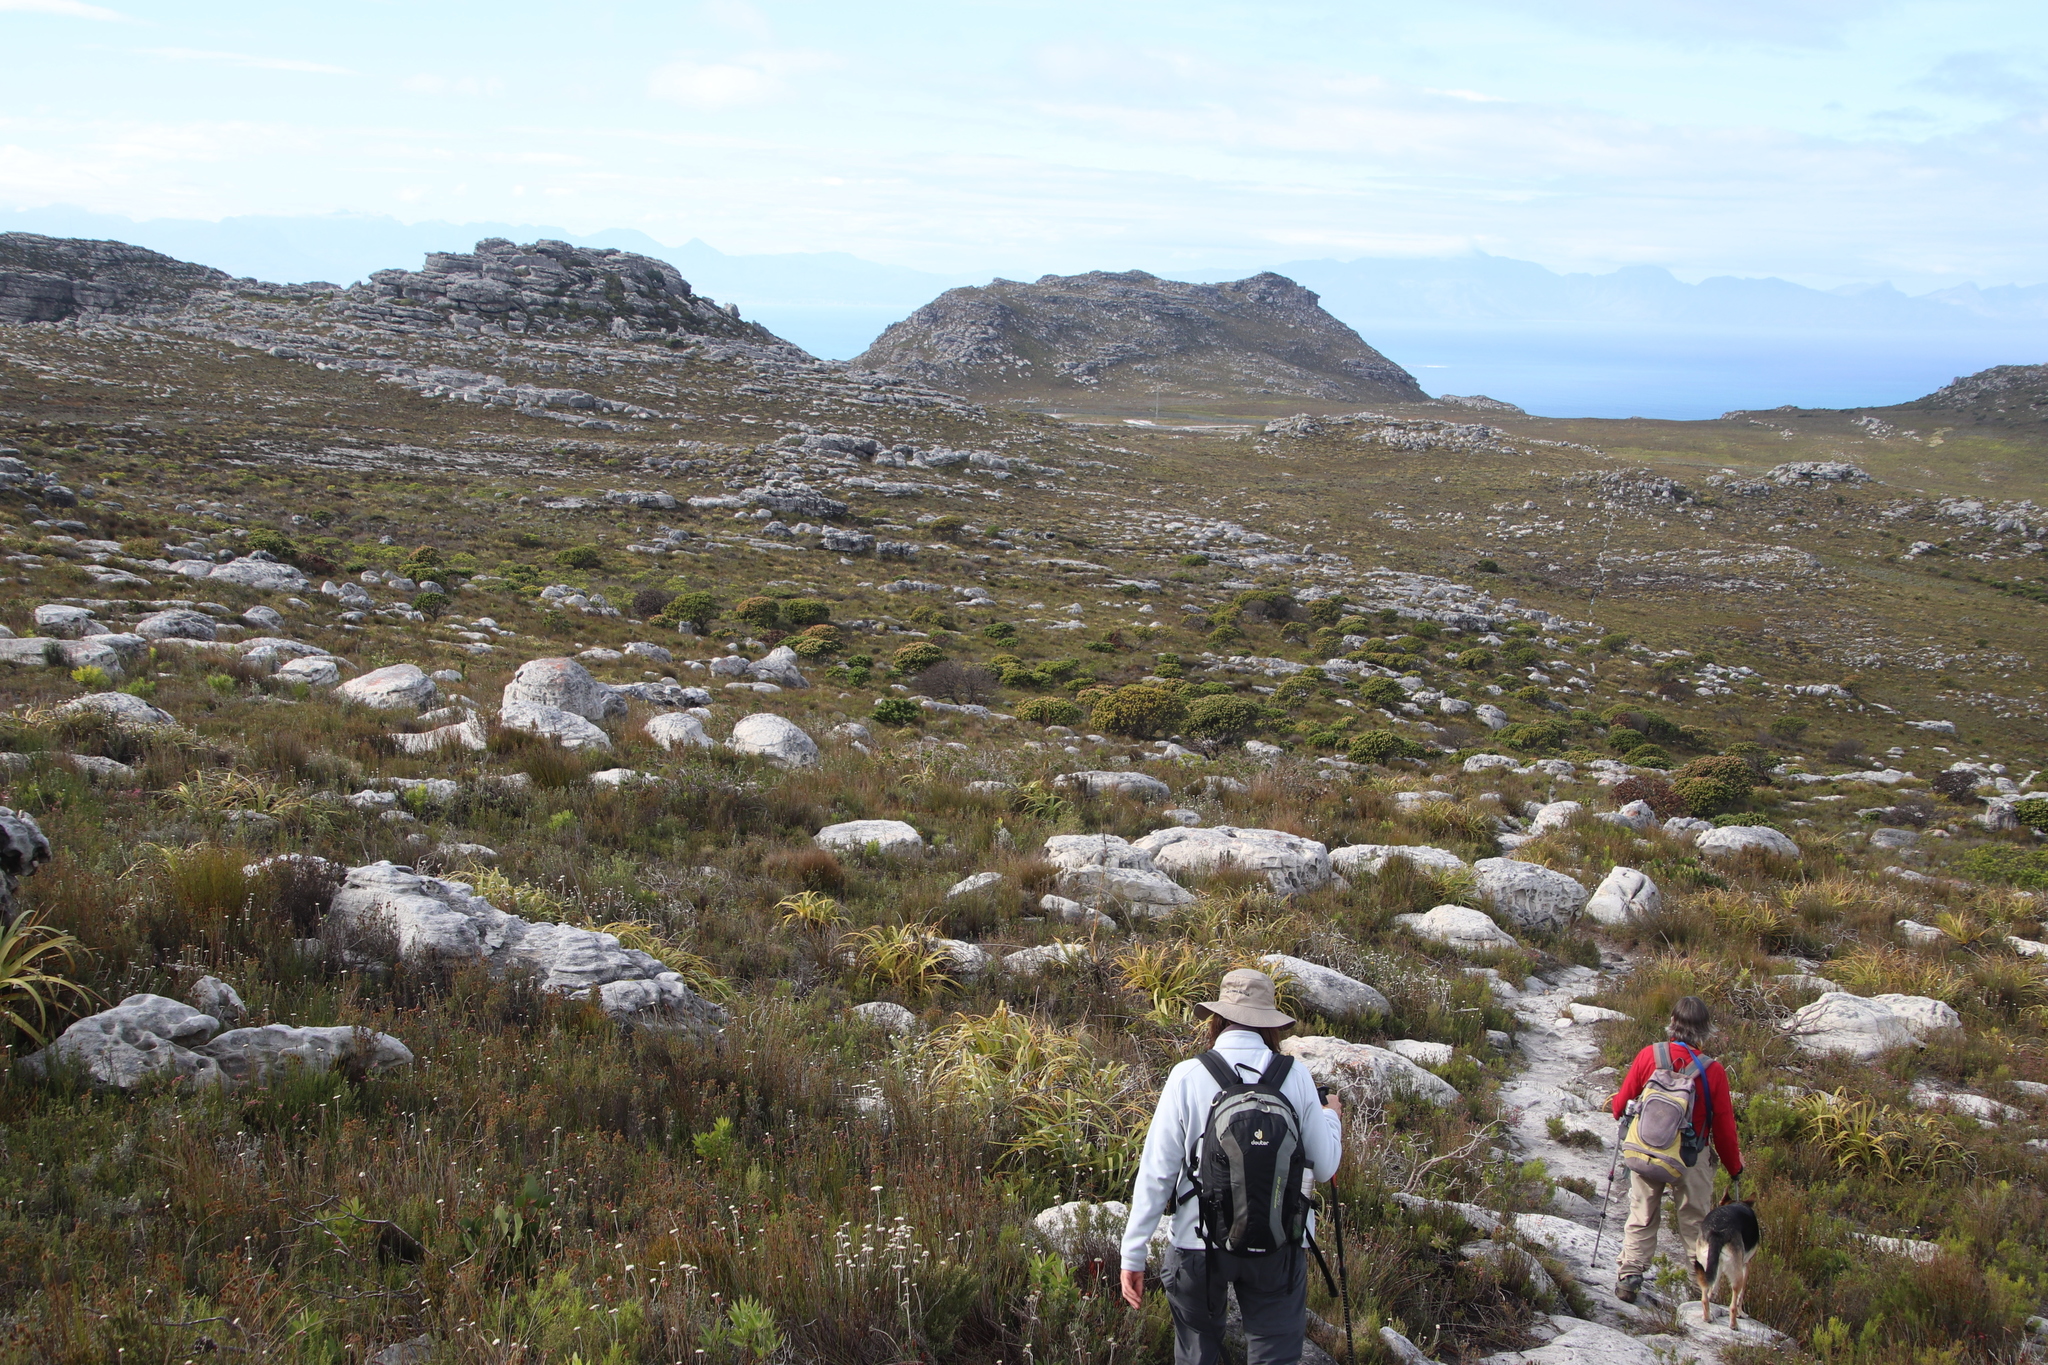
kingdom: Plantae
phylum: Tracheophyta
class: Magnoliopsida
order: Proteales
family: Proteaceae
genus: Mimetes
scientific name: Mimetes fimbriifolius
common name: Fringed bottlebrush
